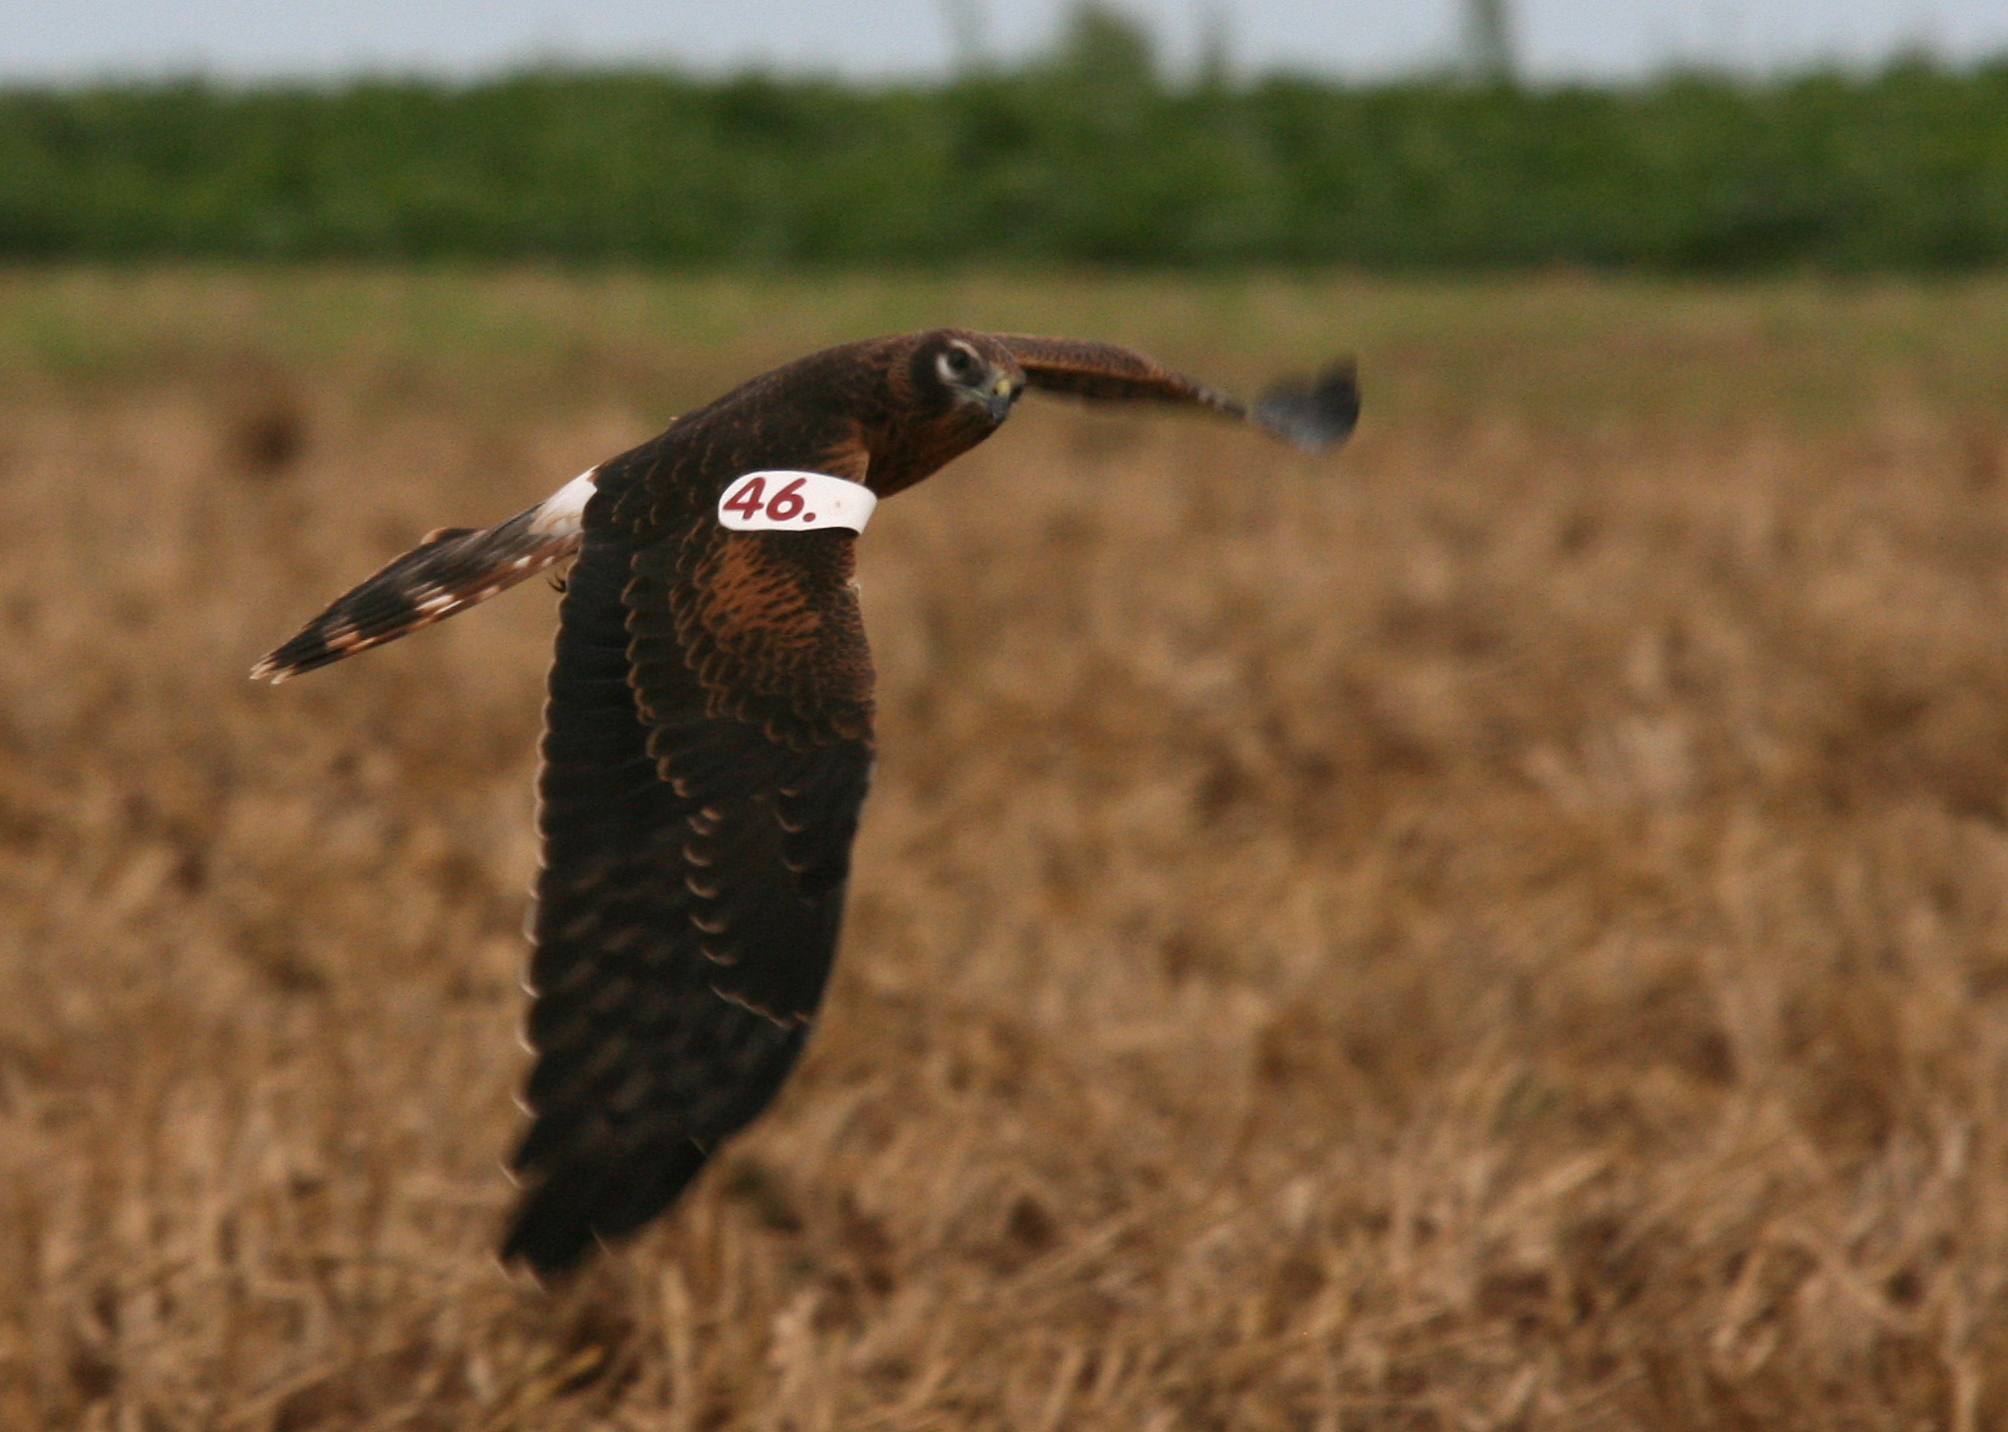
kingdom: Animalia
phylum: Chordata
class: Aves
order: Accipitriformes
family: Accipitridae
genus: Circus
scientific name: Circus pygargus
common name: Montagu's harrier
